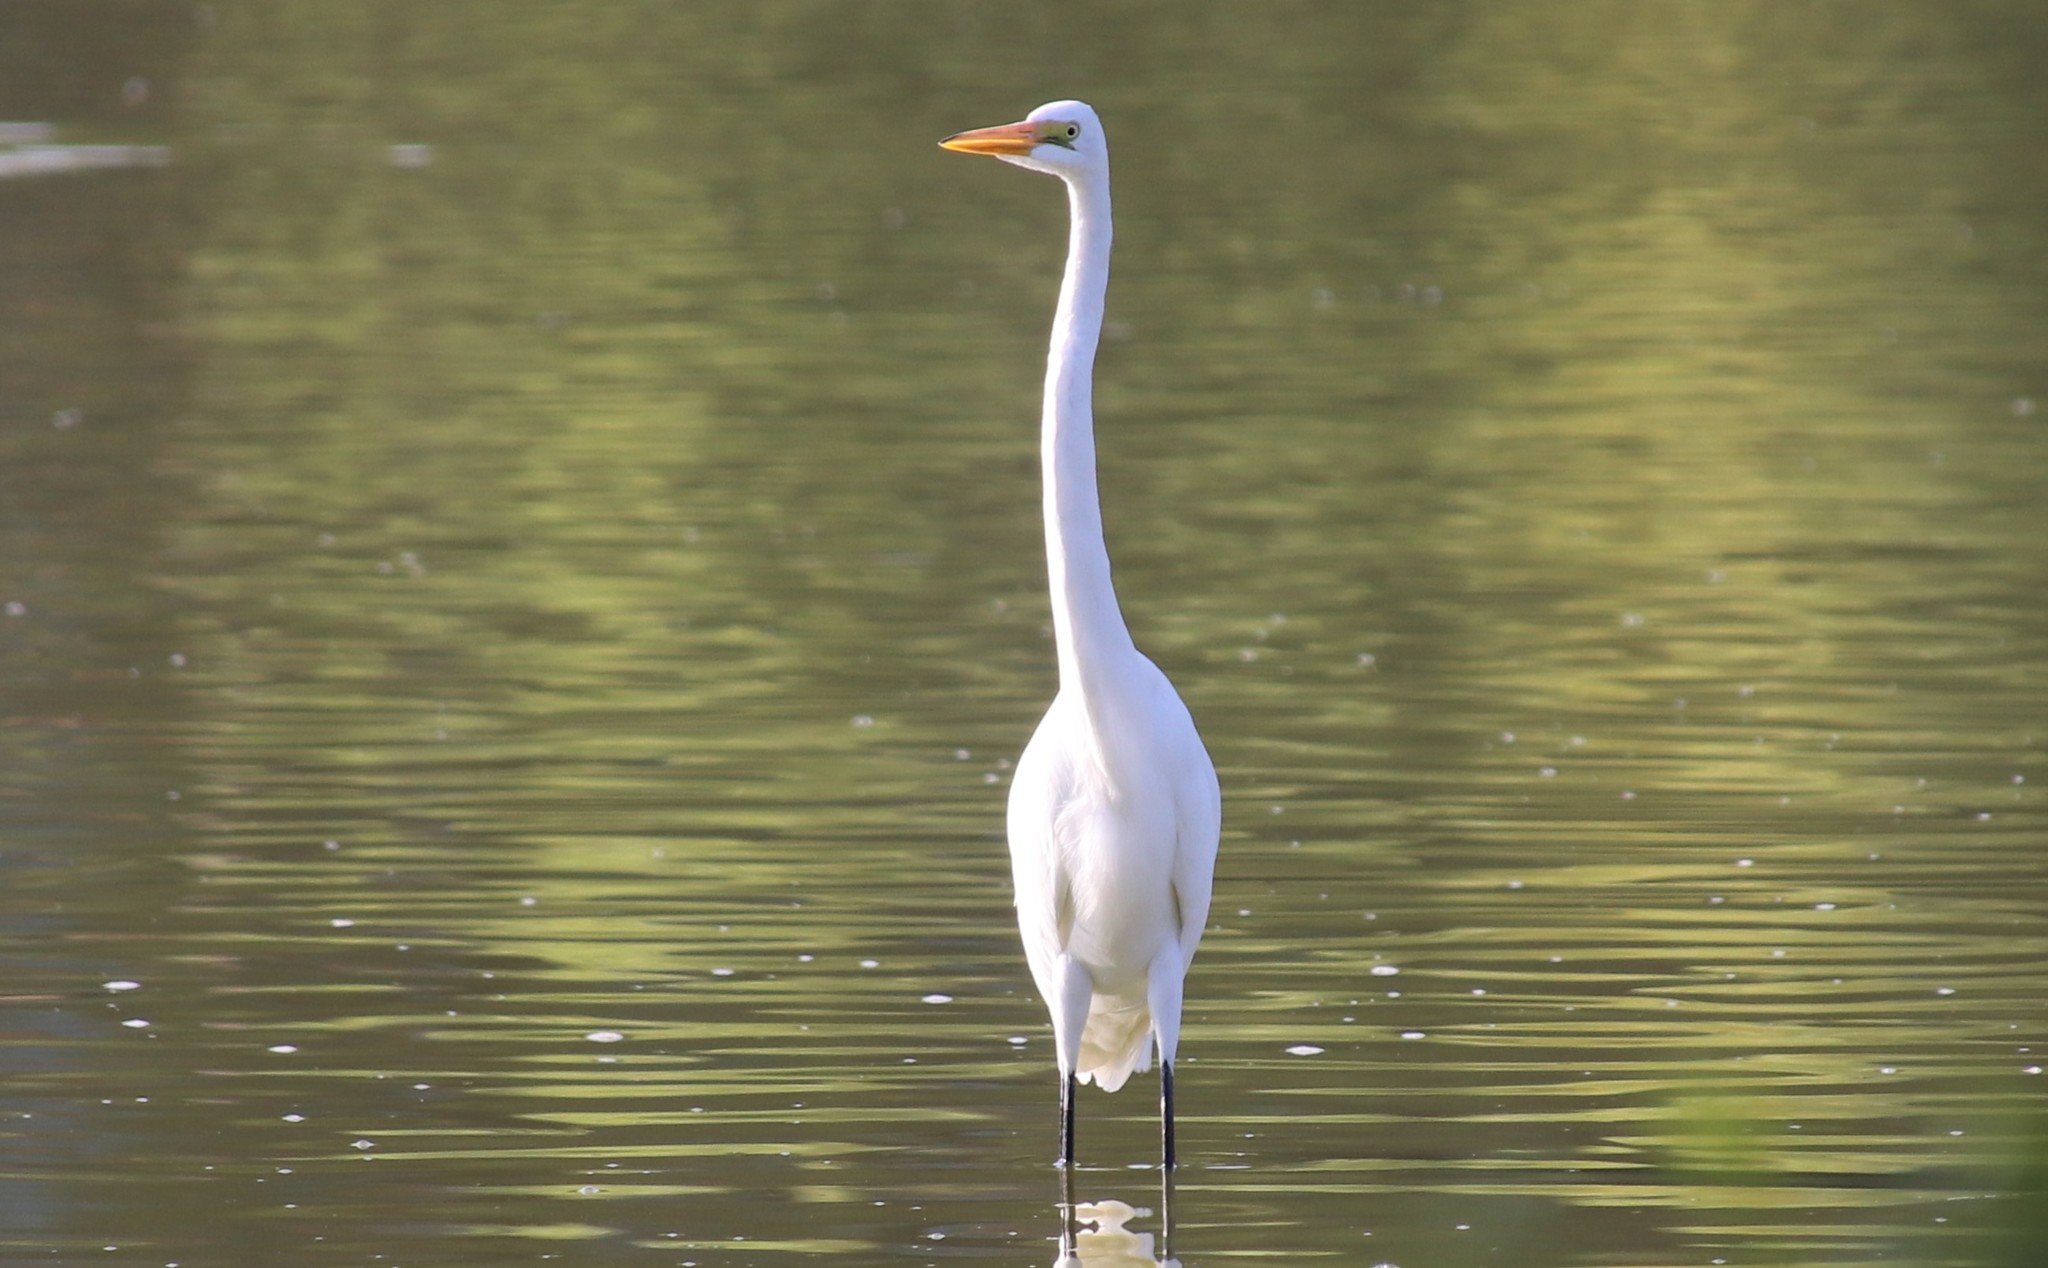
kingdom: Animalia
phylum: Chordata
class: Aves
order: Pelecaniformes
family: Ardeidae
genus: Ardea
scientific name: Ardea alba
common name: Great egret
